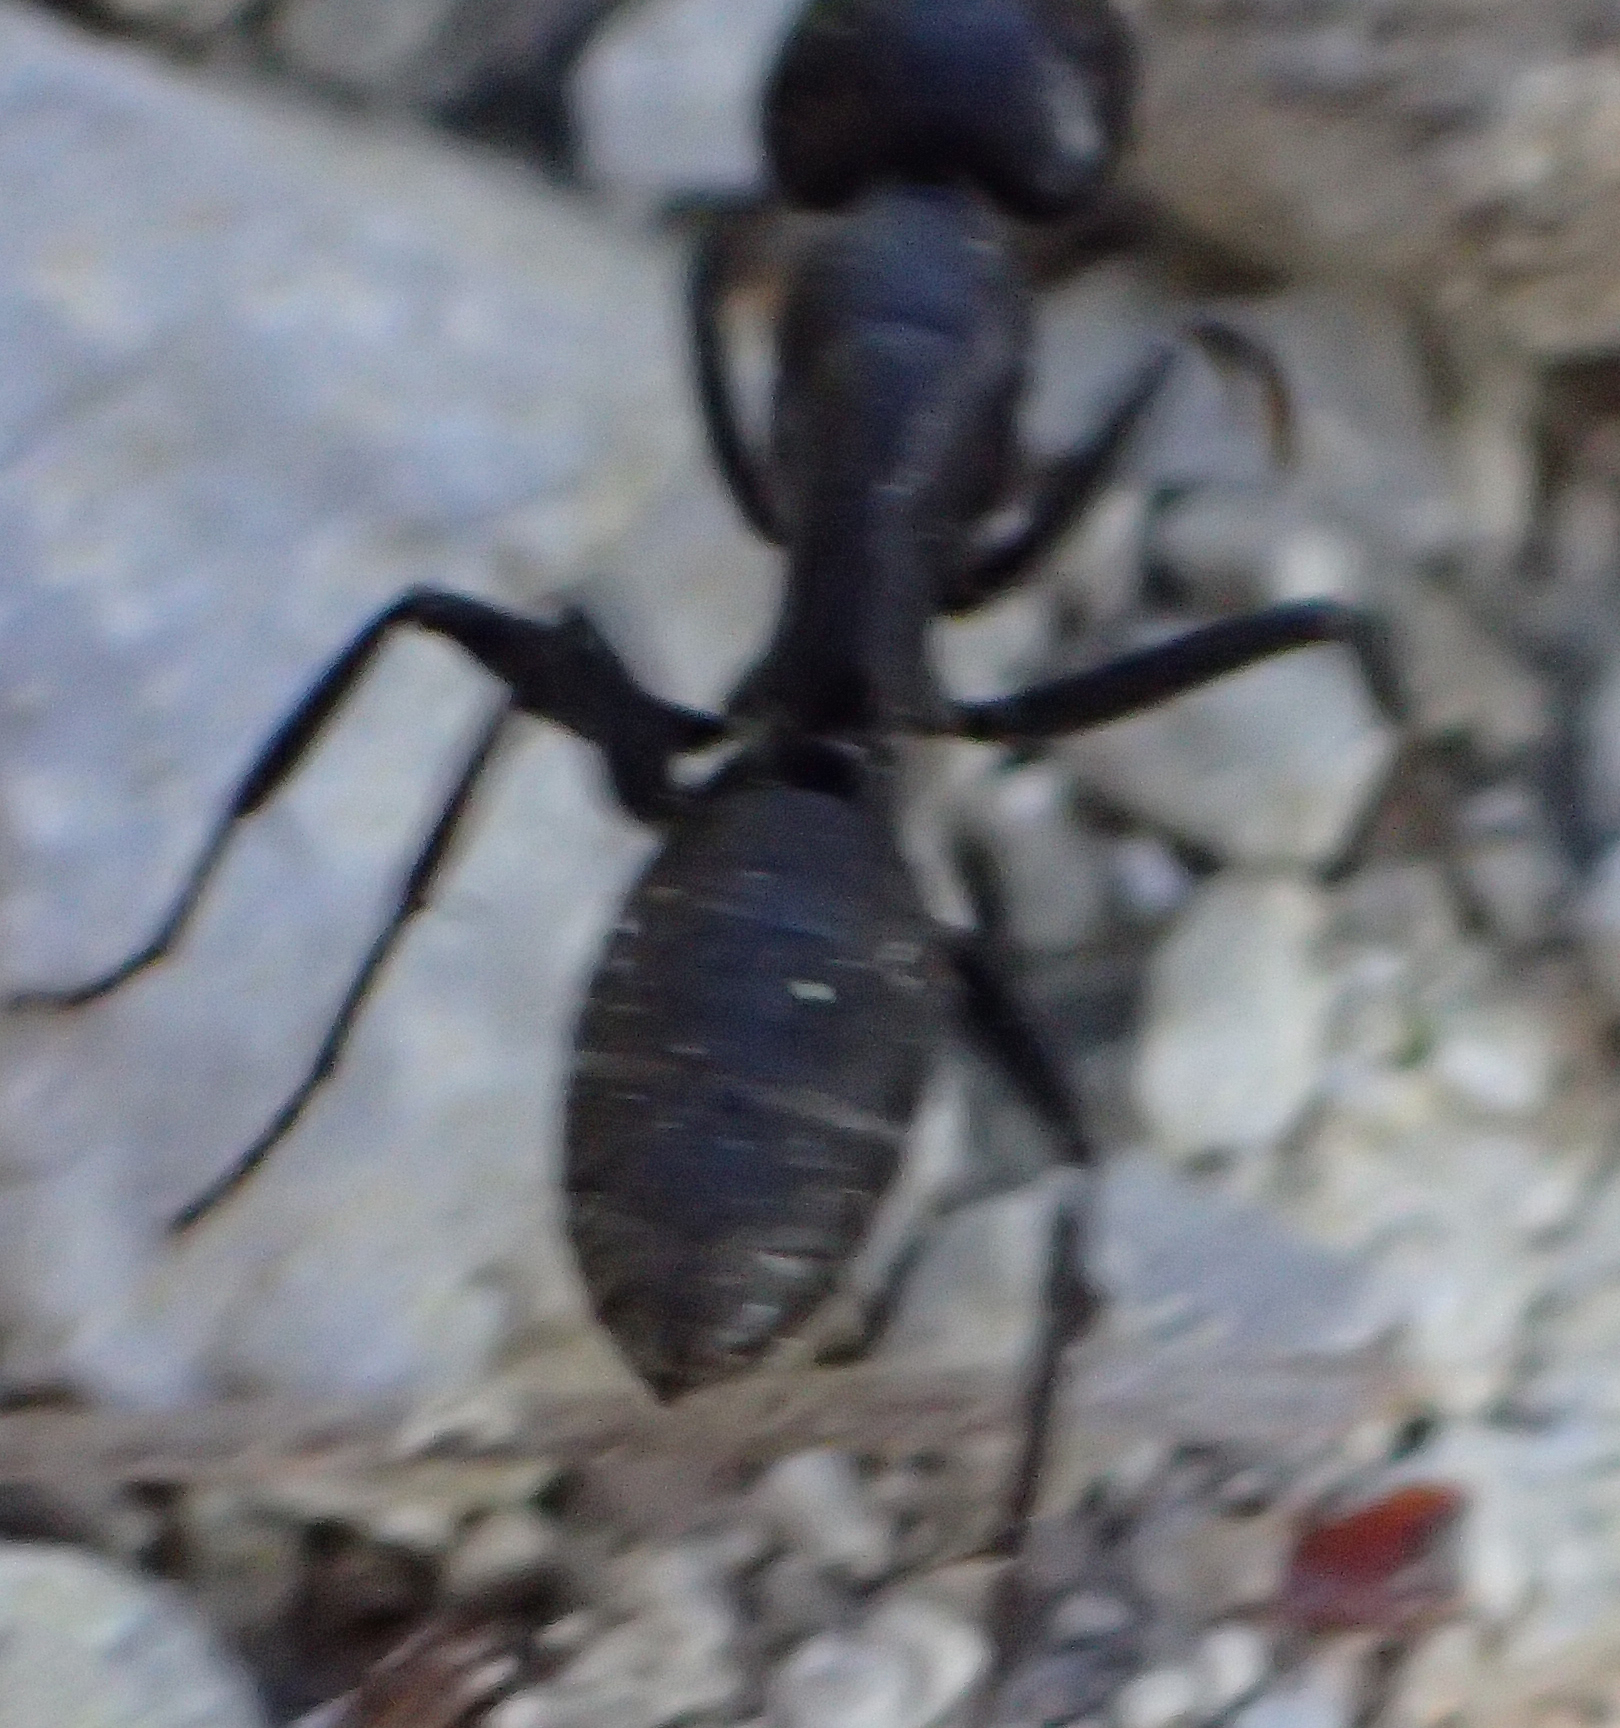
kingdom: Animalia
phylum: Arthropoda
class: Insecta
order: Hymenoptera
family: Formicidae
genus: Camponotus
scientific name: Camponotus vagus
